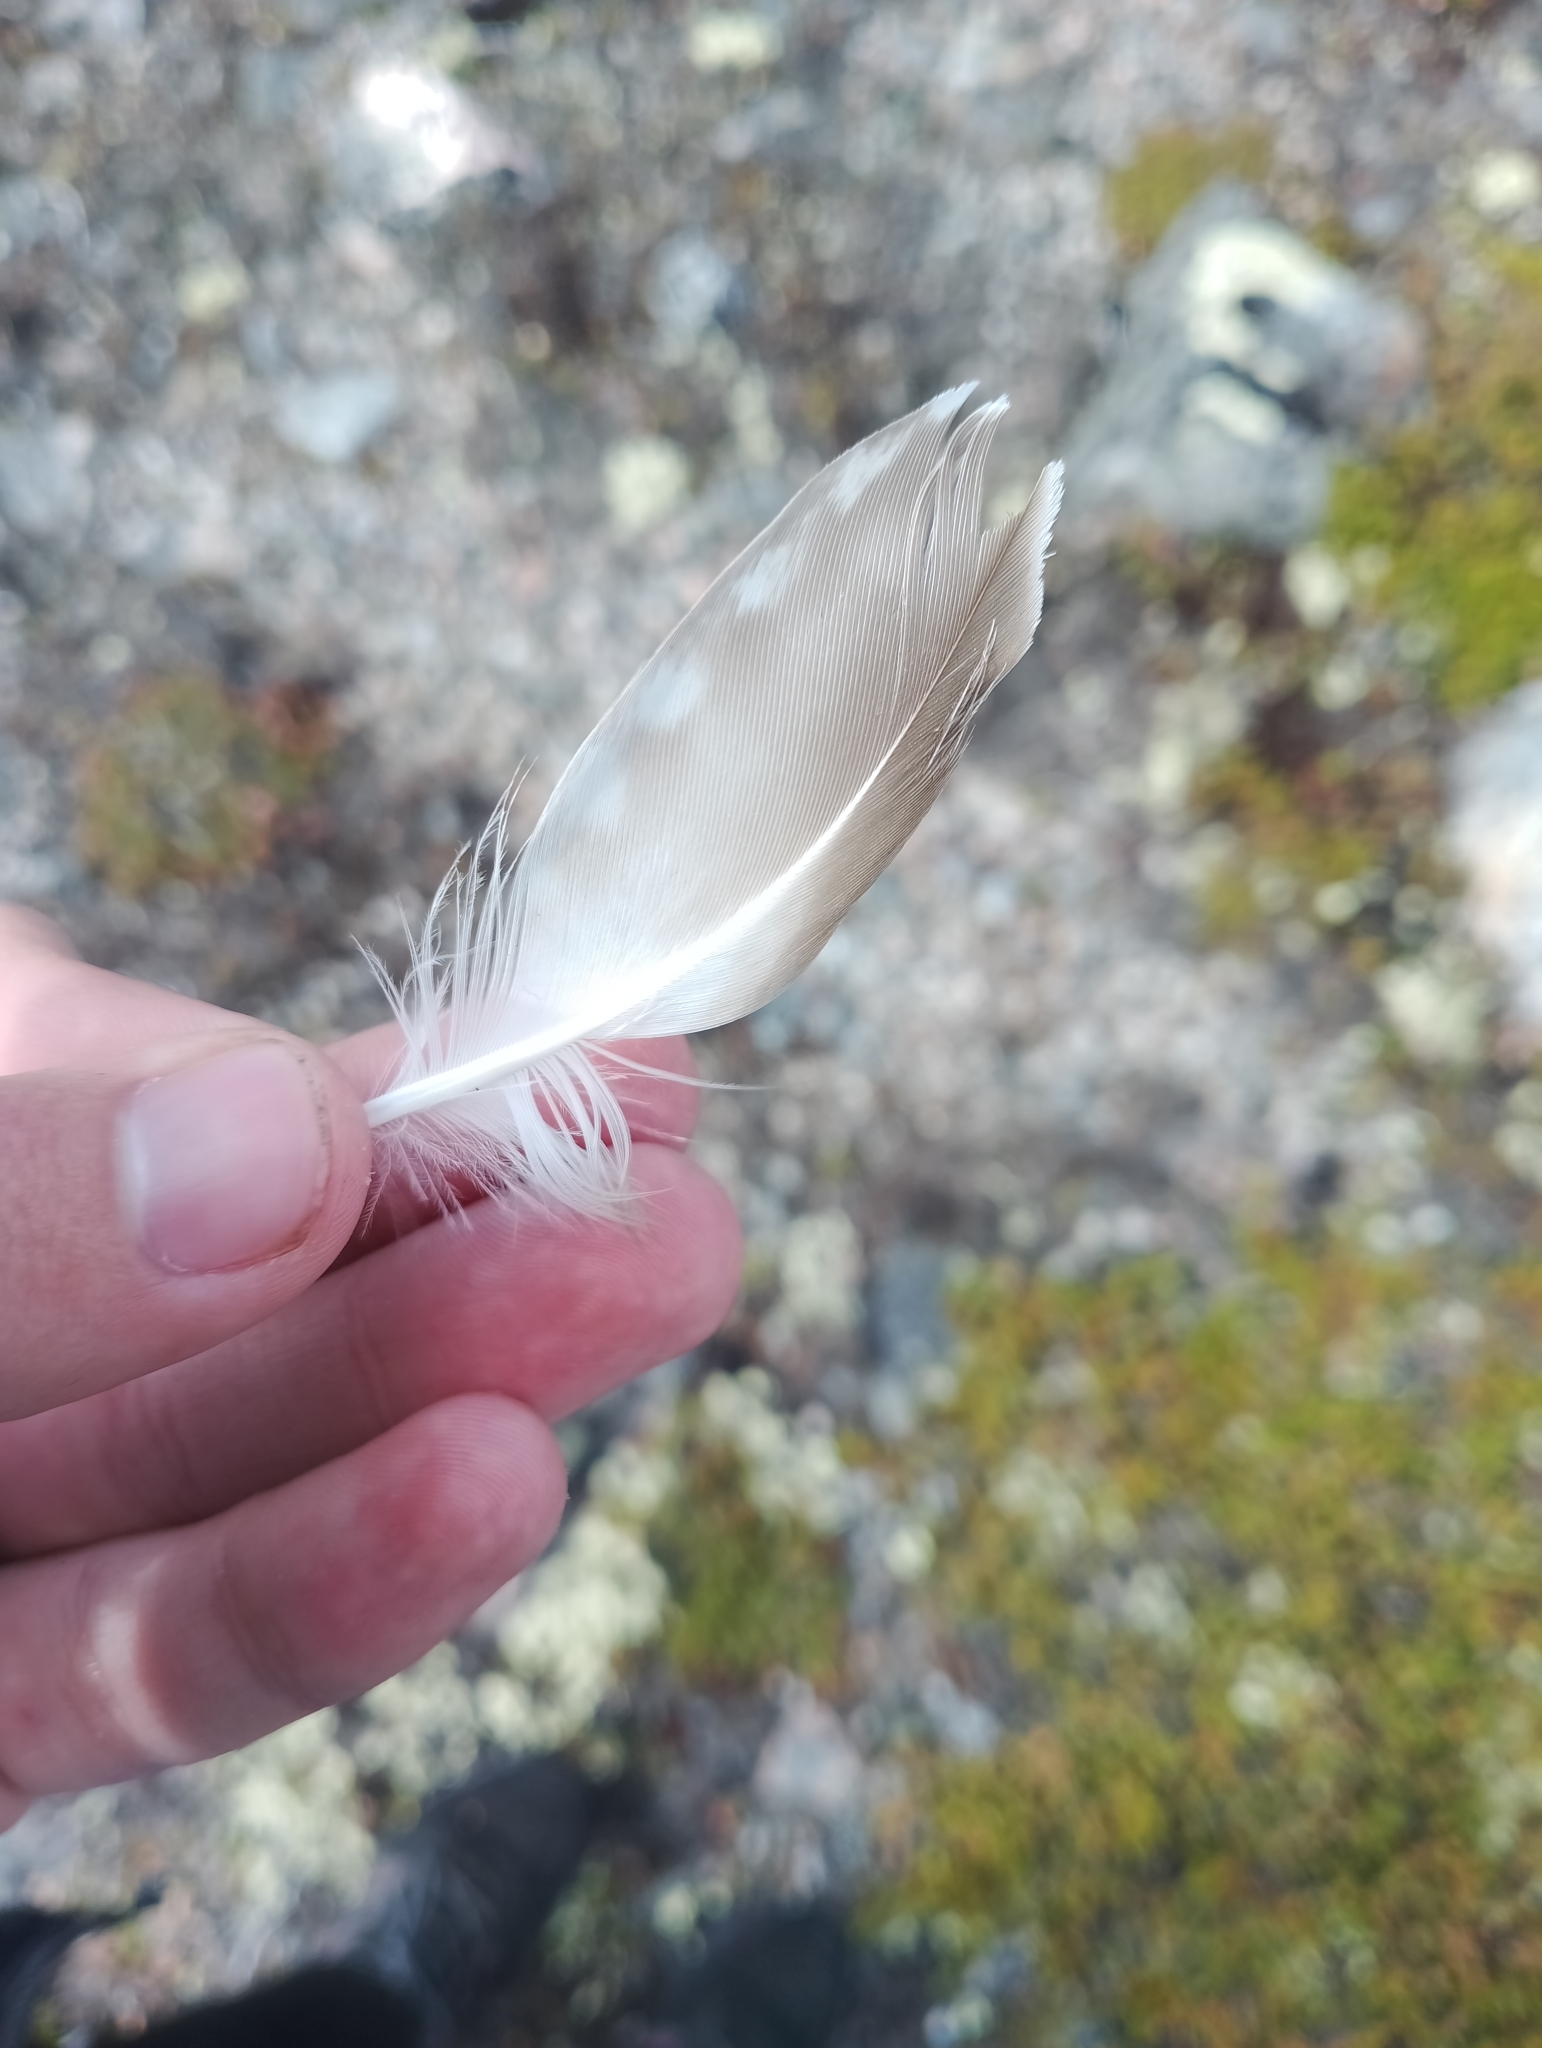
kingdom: Animalia
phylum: Chordata
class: Aves
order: Charadriiformes
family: Charadriidae
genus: Pluvialis
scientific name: Pluvialis apricaria
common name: European golden plover
